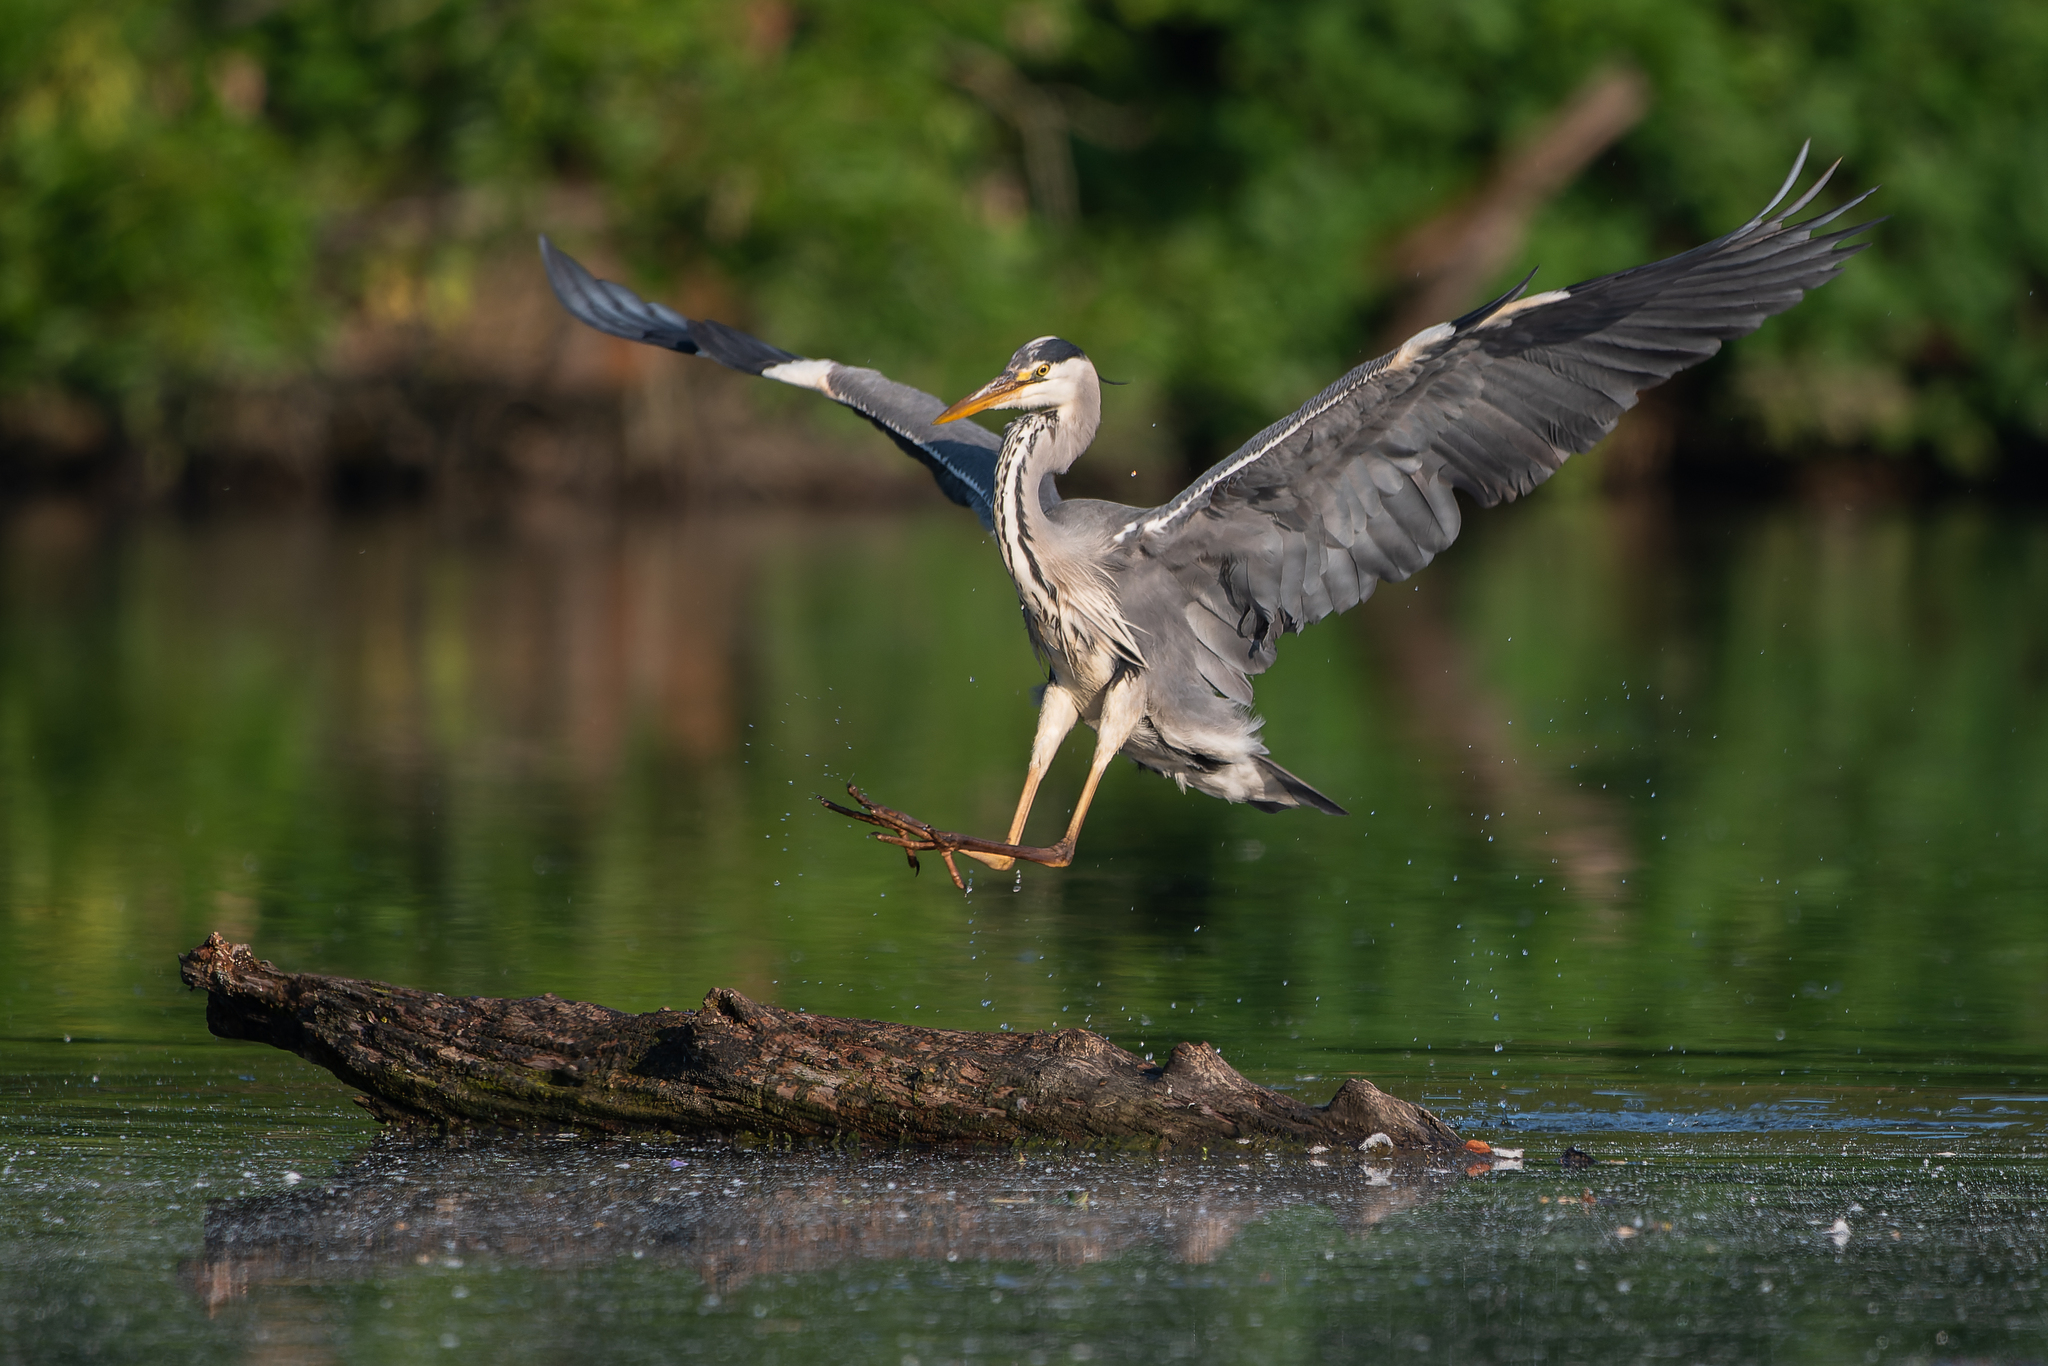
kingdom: Animalia
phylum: Chordata
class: Aves
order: Pelecaniformes
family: Ardeidae
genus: Ardea
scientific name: Ardea cinerea
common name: Grey heron
